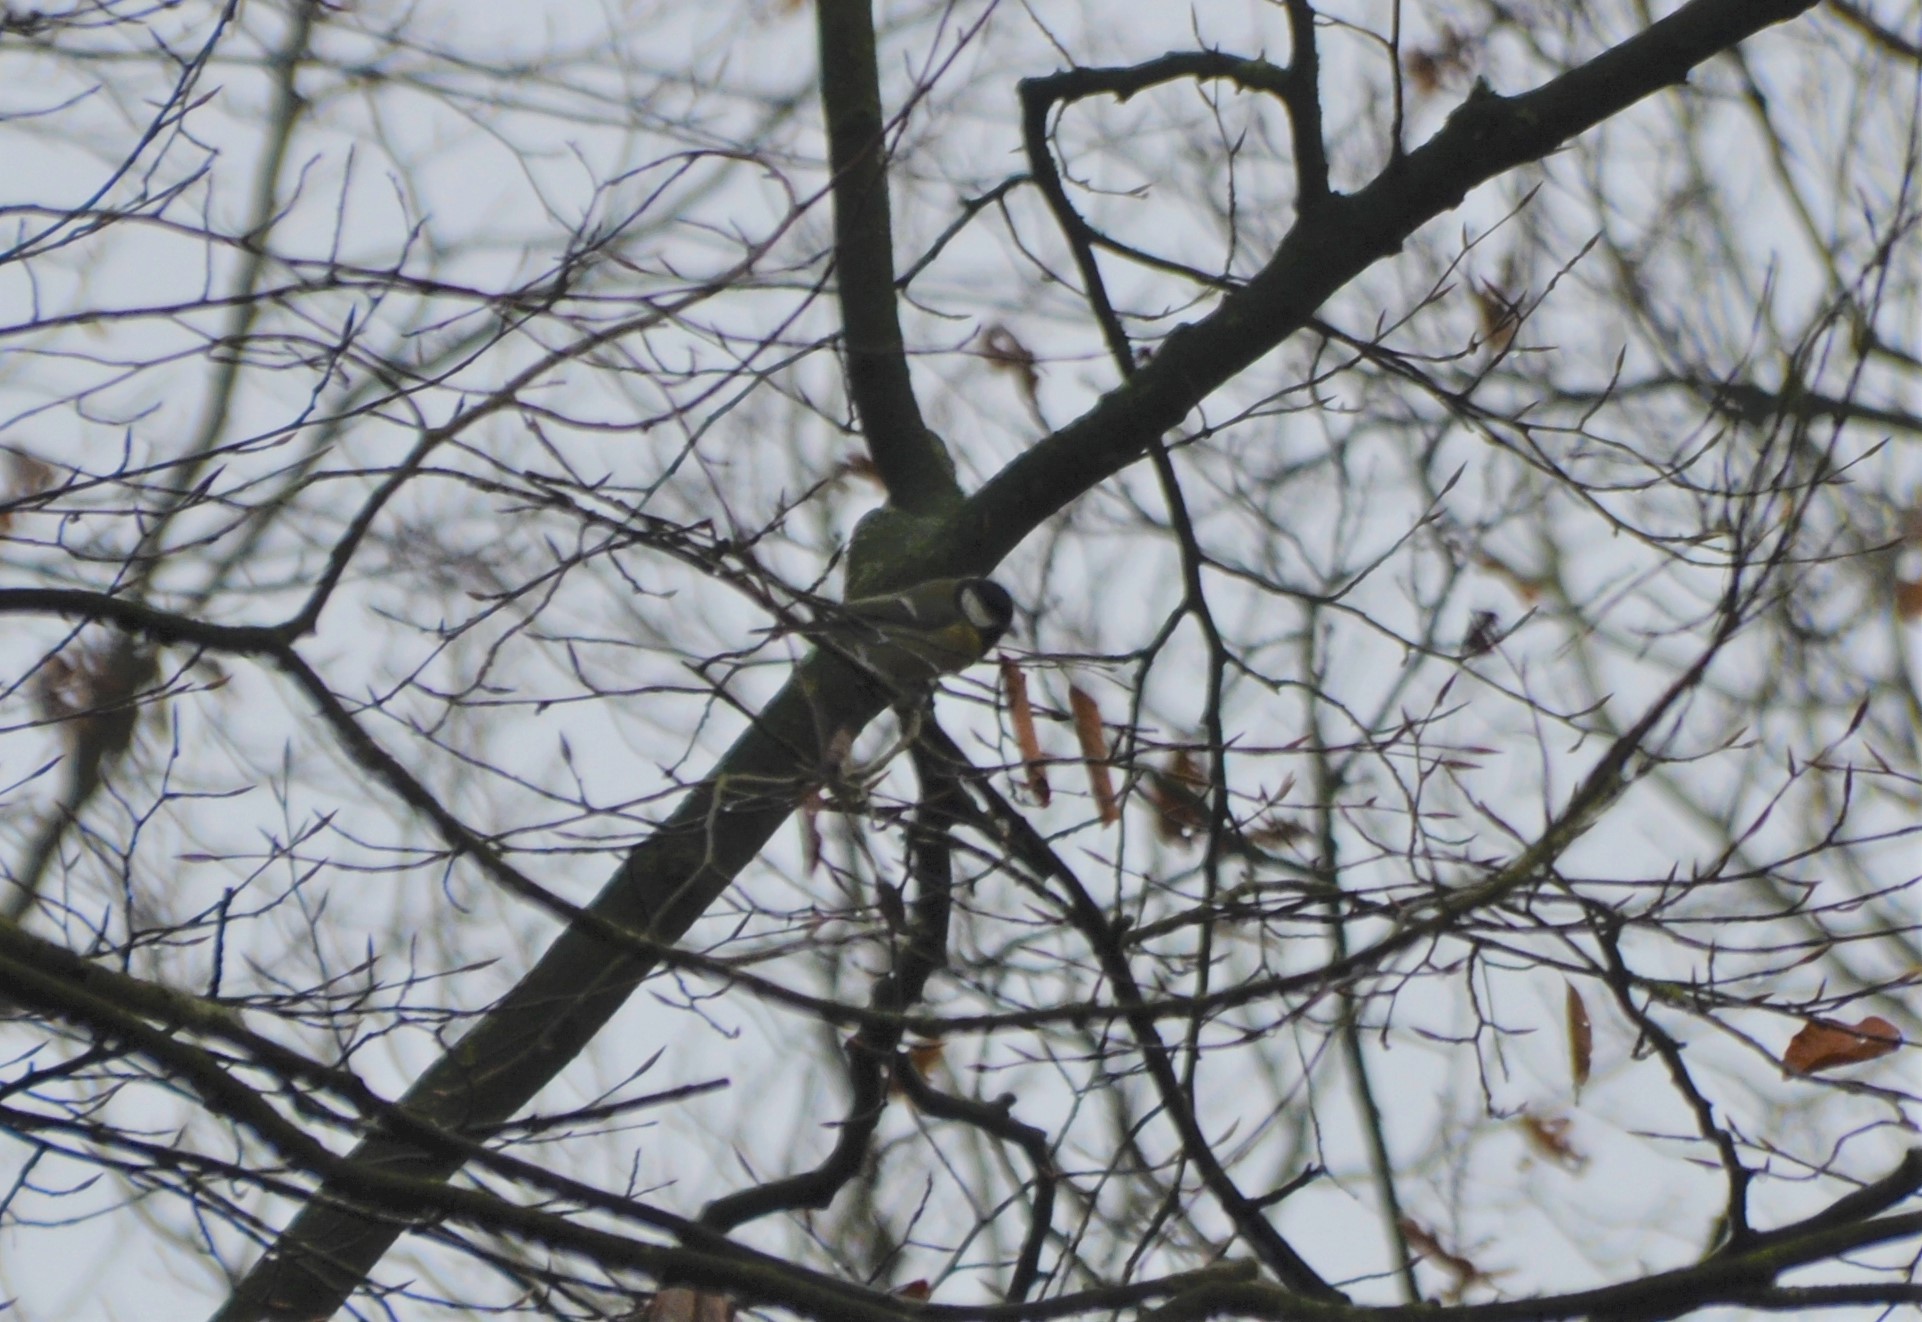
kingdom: Animalia
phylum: Chordata
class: Aves
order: Passeriformes
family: Paridae
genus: Parus
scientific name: Parus major
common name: Great tit
